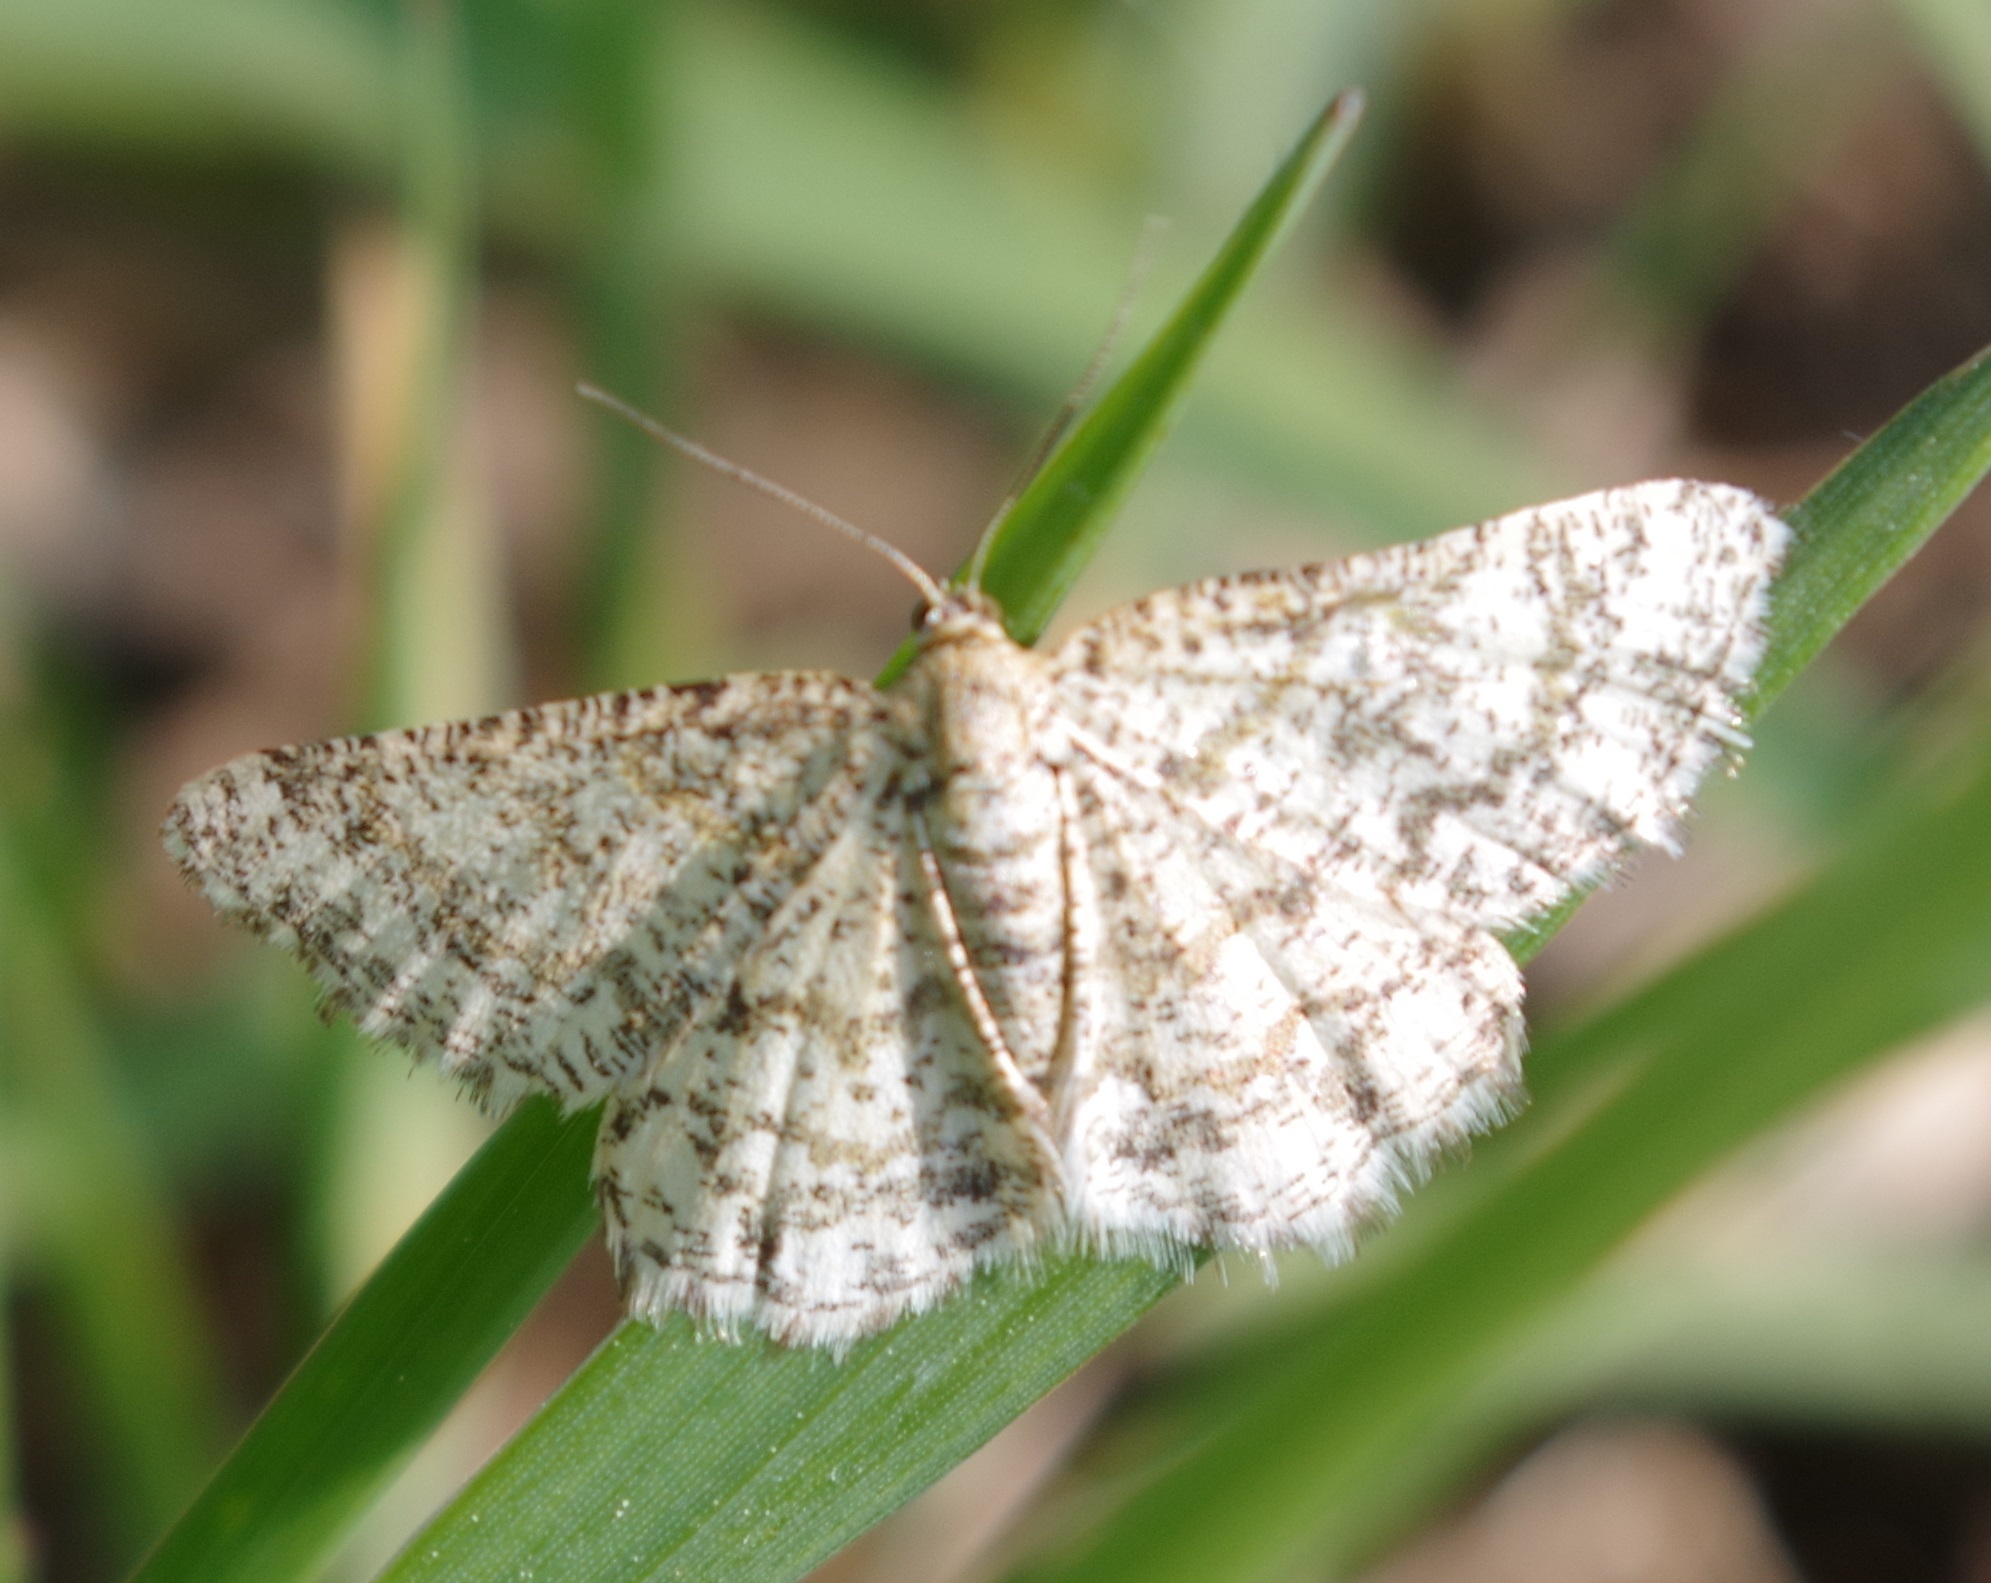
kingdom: Animalia
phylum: Arthropoda
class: Insecta
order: Lepidoptera
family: Geometridae
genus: Heliomata
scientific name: Heliomata glarearia
